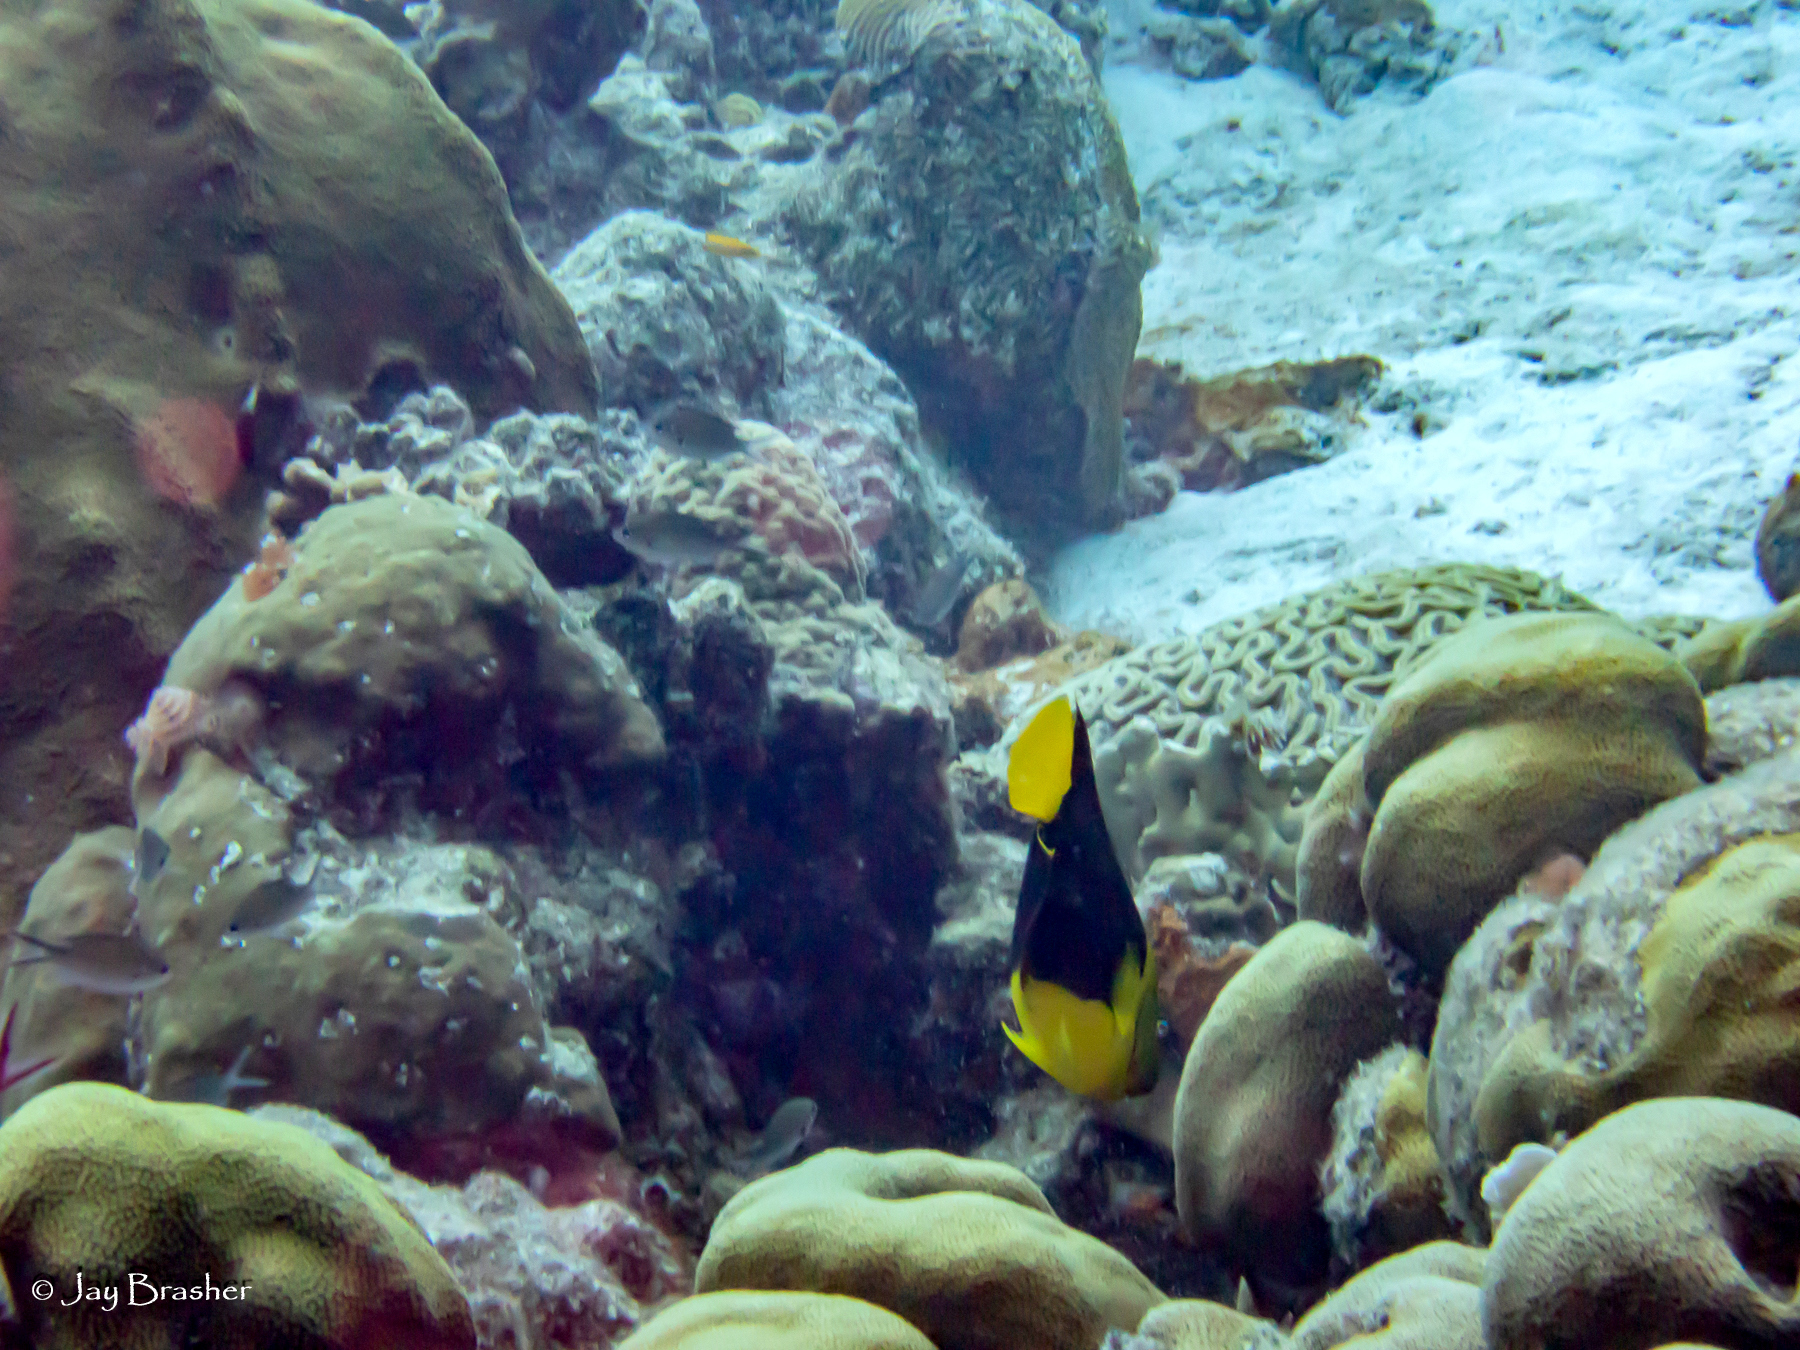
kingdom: Animalia
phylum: Chordata
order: Perciformes
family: Pomacanthidae
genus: Holacanthus
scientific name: Holacanthus tricolor
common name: Rock beauty
